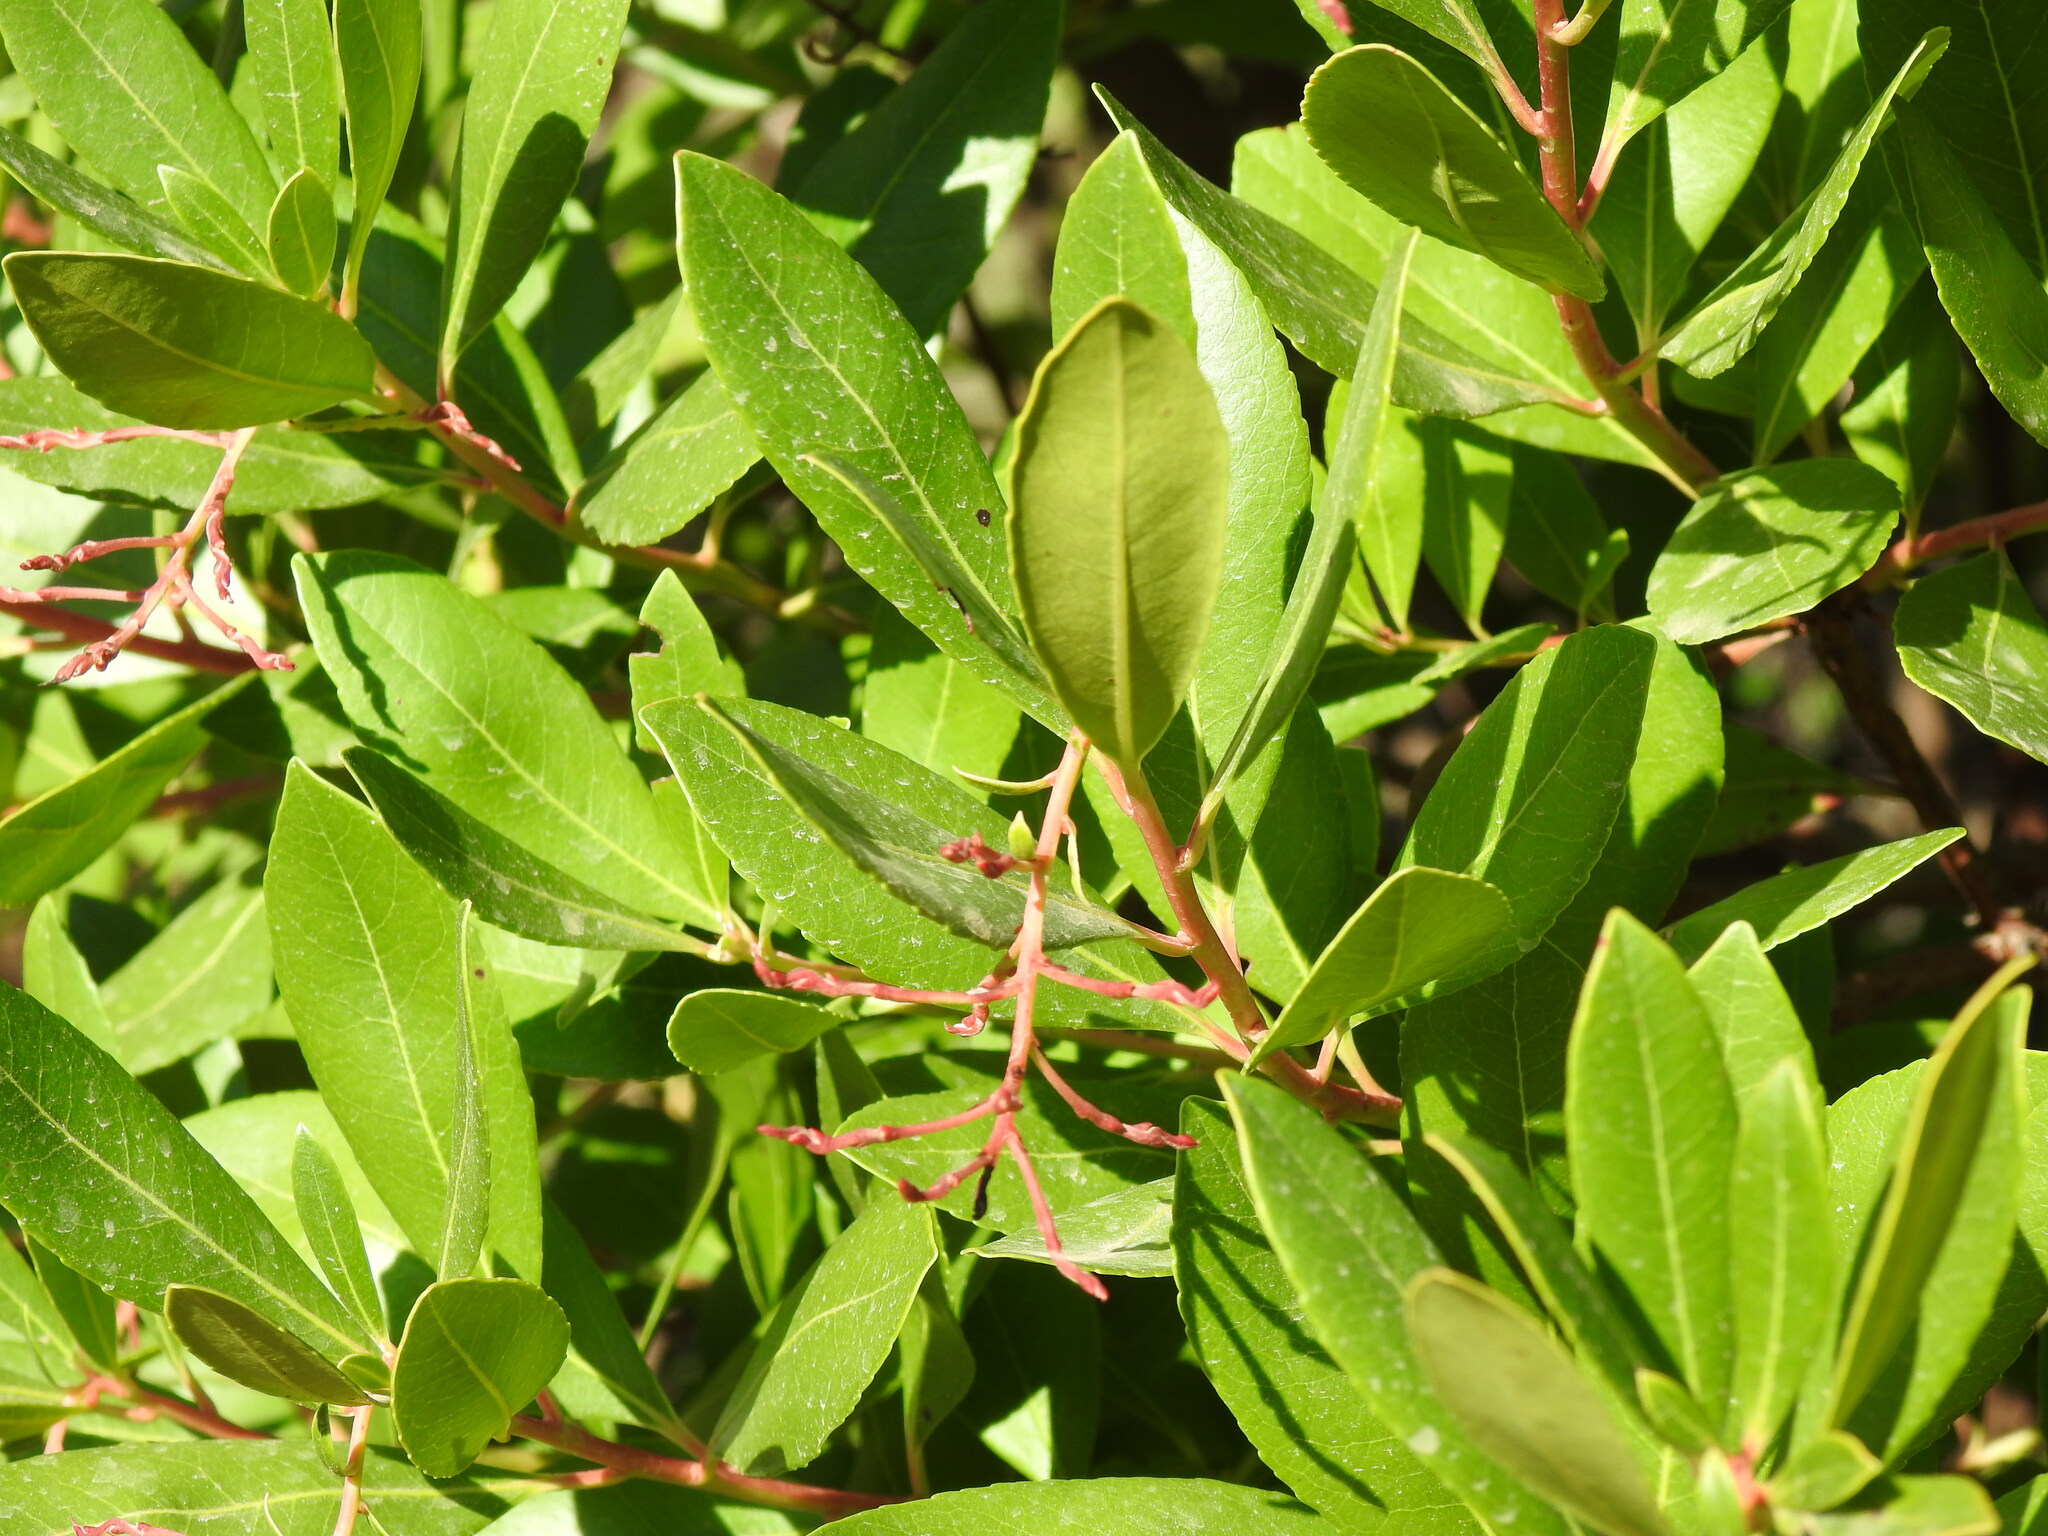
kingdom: Plantae
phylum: Tracheophyta
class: Magnoliopsida
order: Ericales
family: Ericaceae
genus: Arbutus
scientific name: Arbutus unedo
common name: Strawberry-tree
